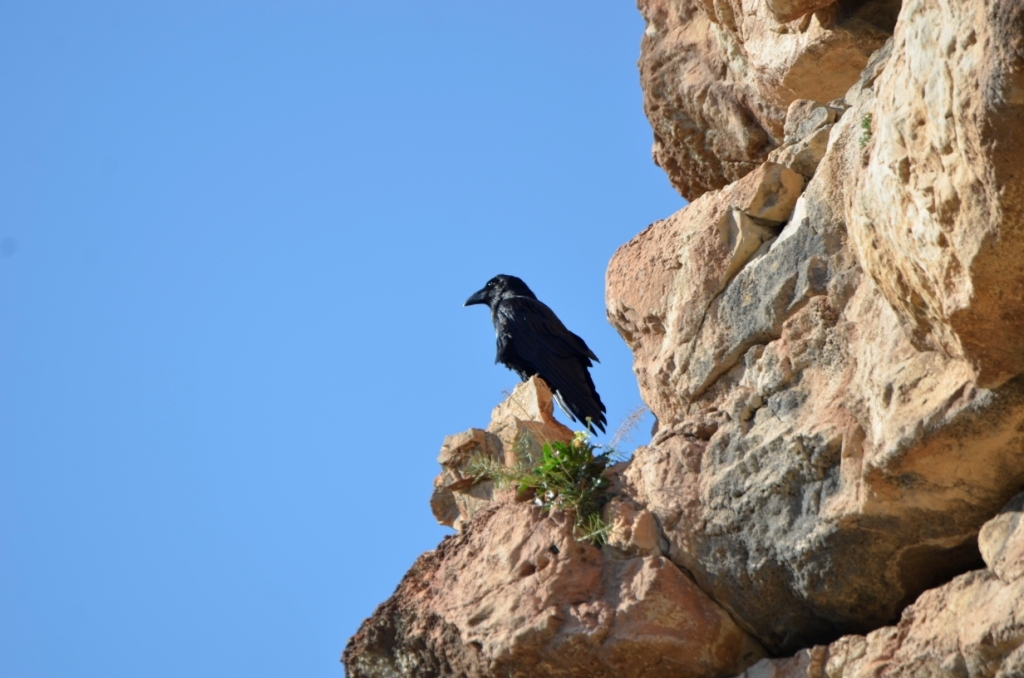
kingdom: Animalia
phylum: Chordata
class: Aves
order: Passeriformes
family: Corvidae
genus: Corvus
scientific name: Corvus corax
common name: Common raven
